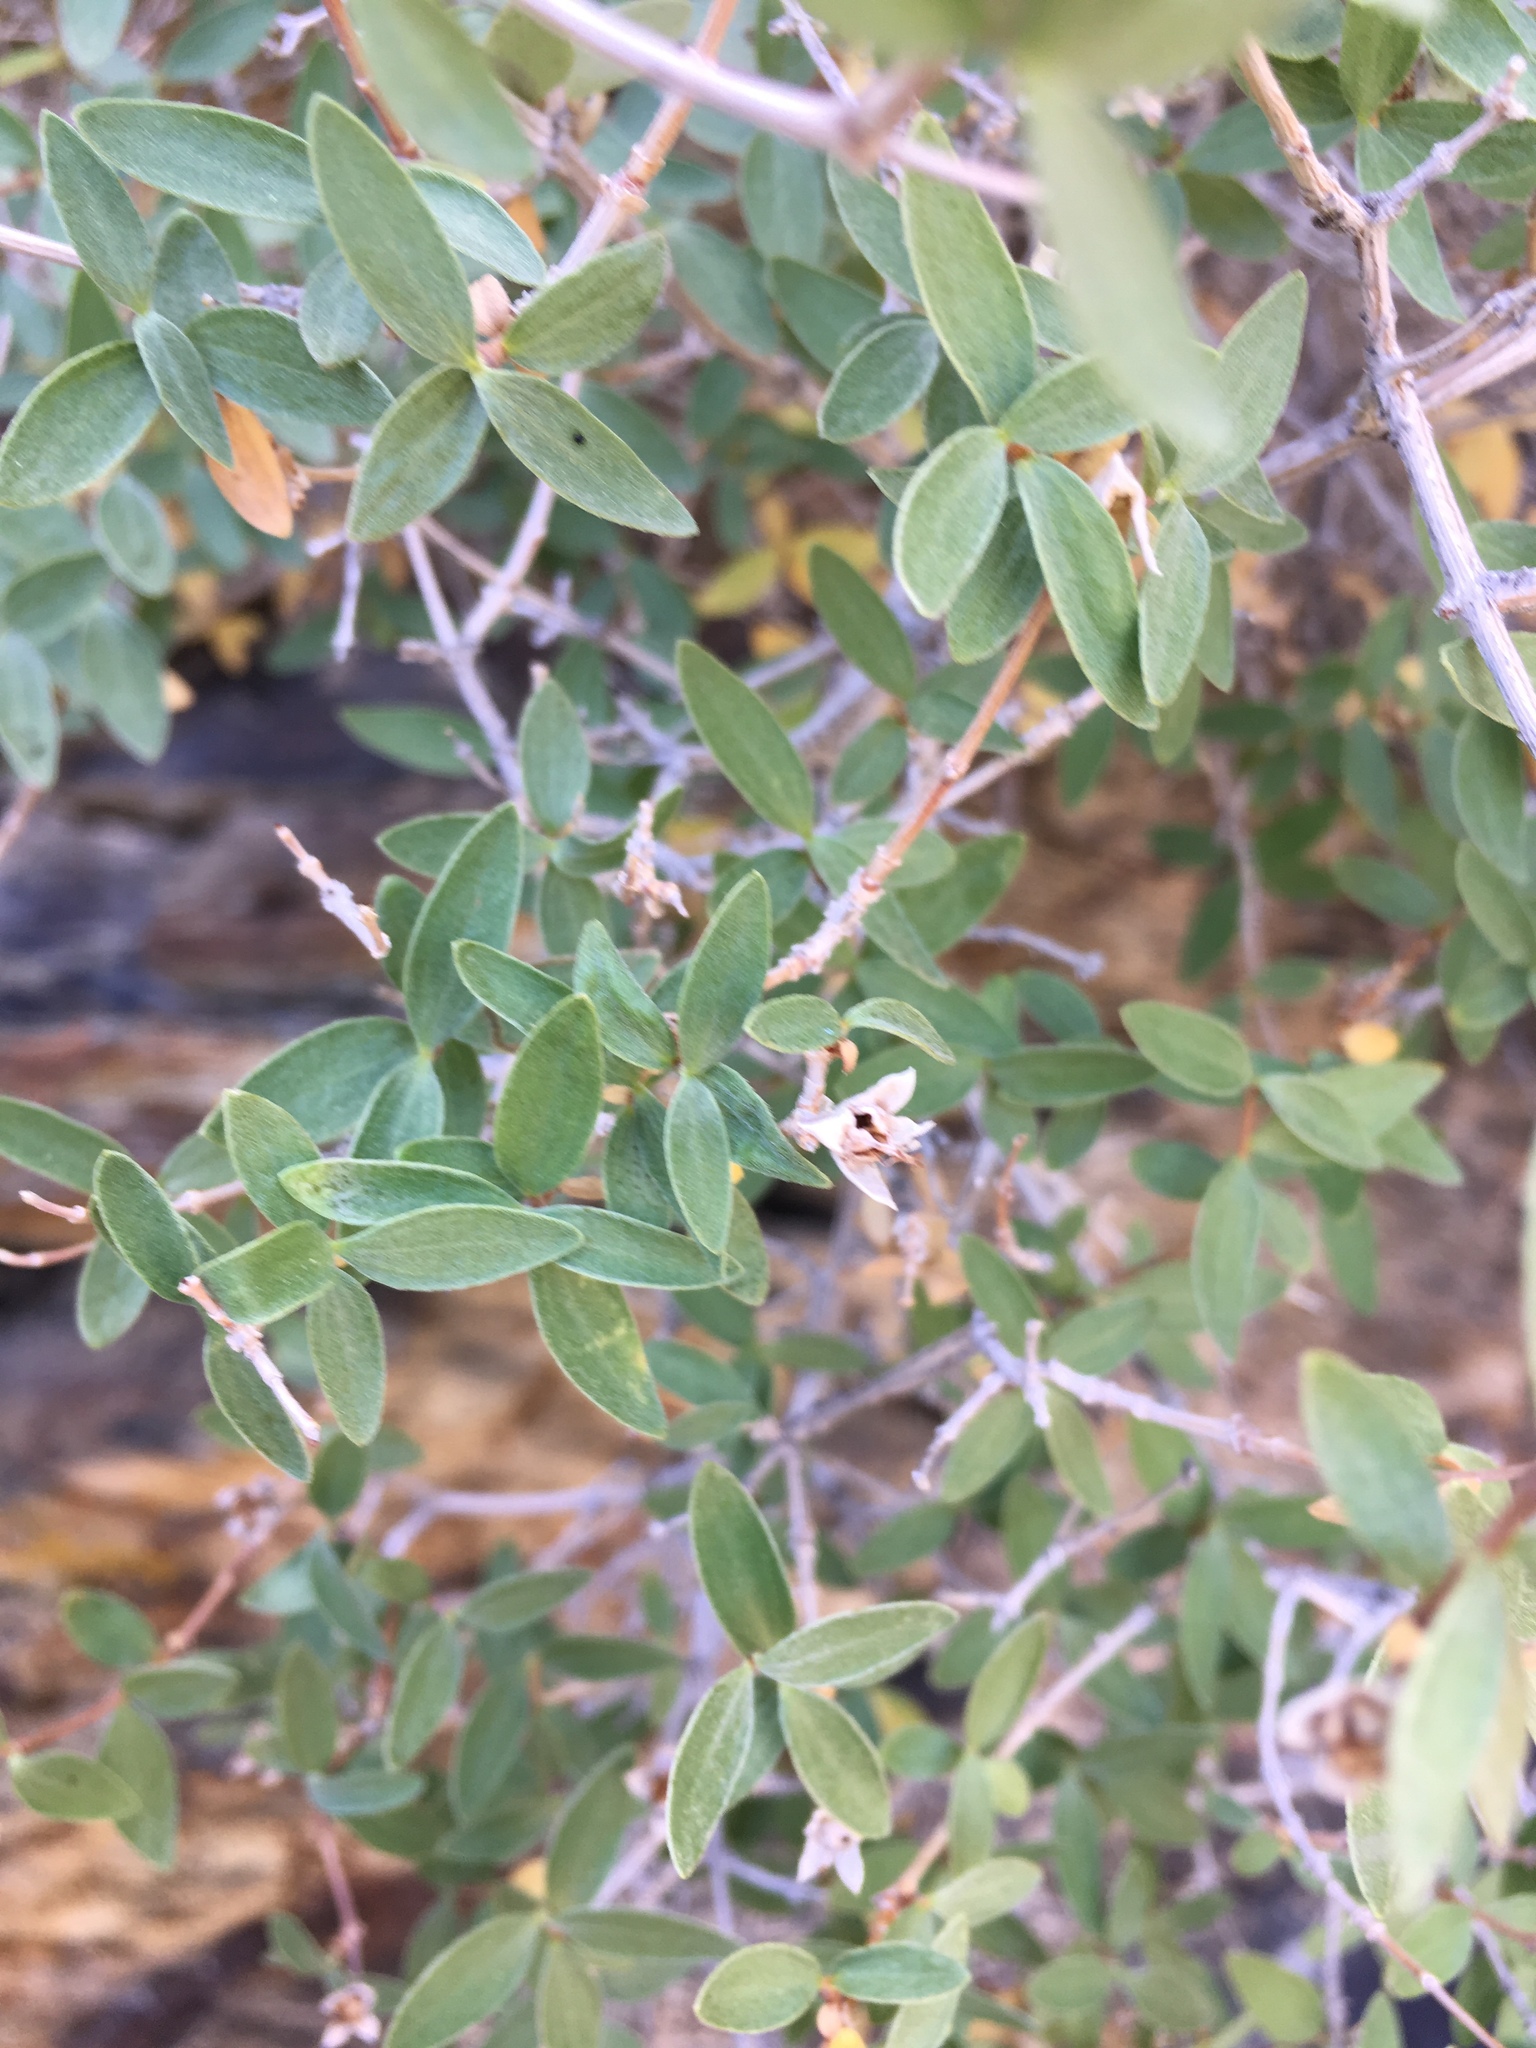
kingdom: Plantae
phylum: Tracheophyta
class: Magnoliopsida
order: Cornales
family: Hydrangeaceae
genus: Philadelphus
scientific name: Philadelphus microphyllus
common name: Desert mock orange
